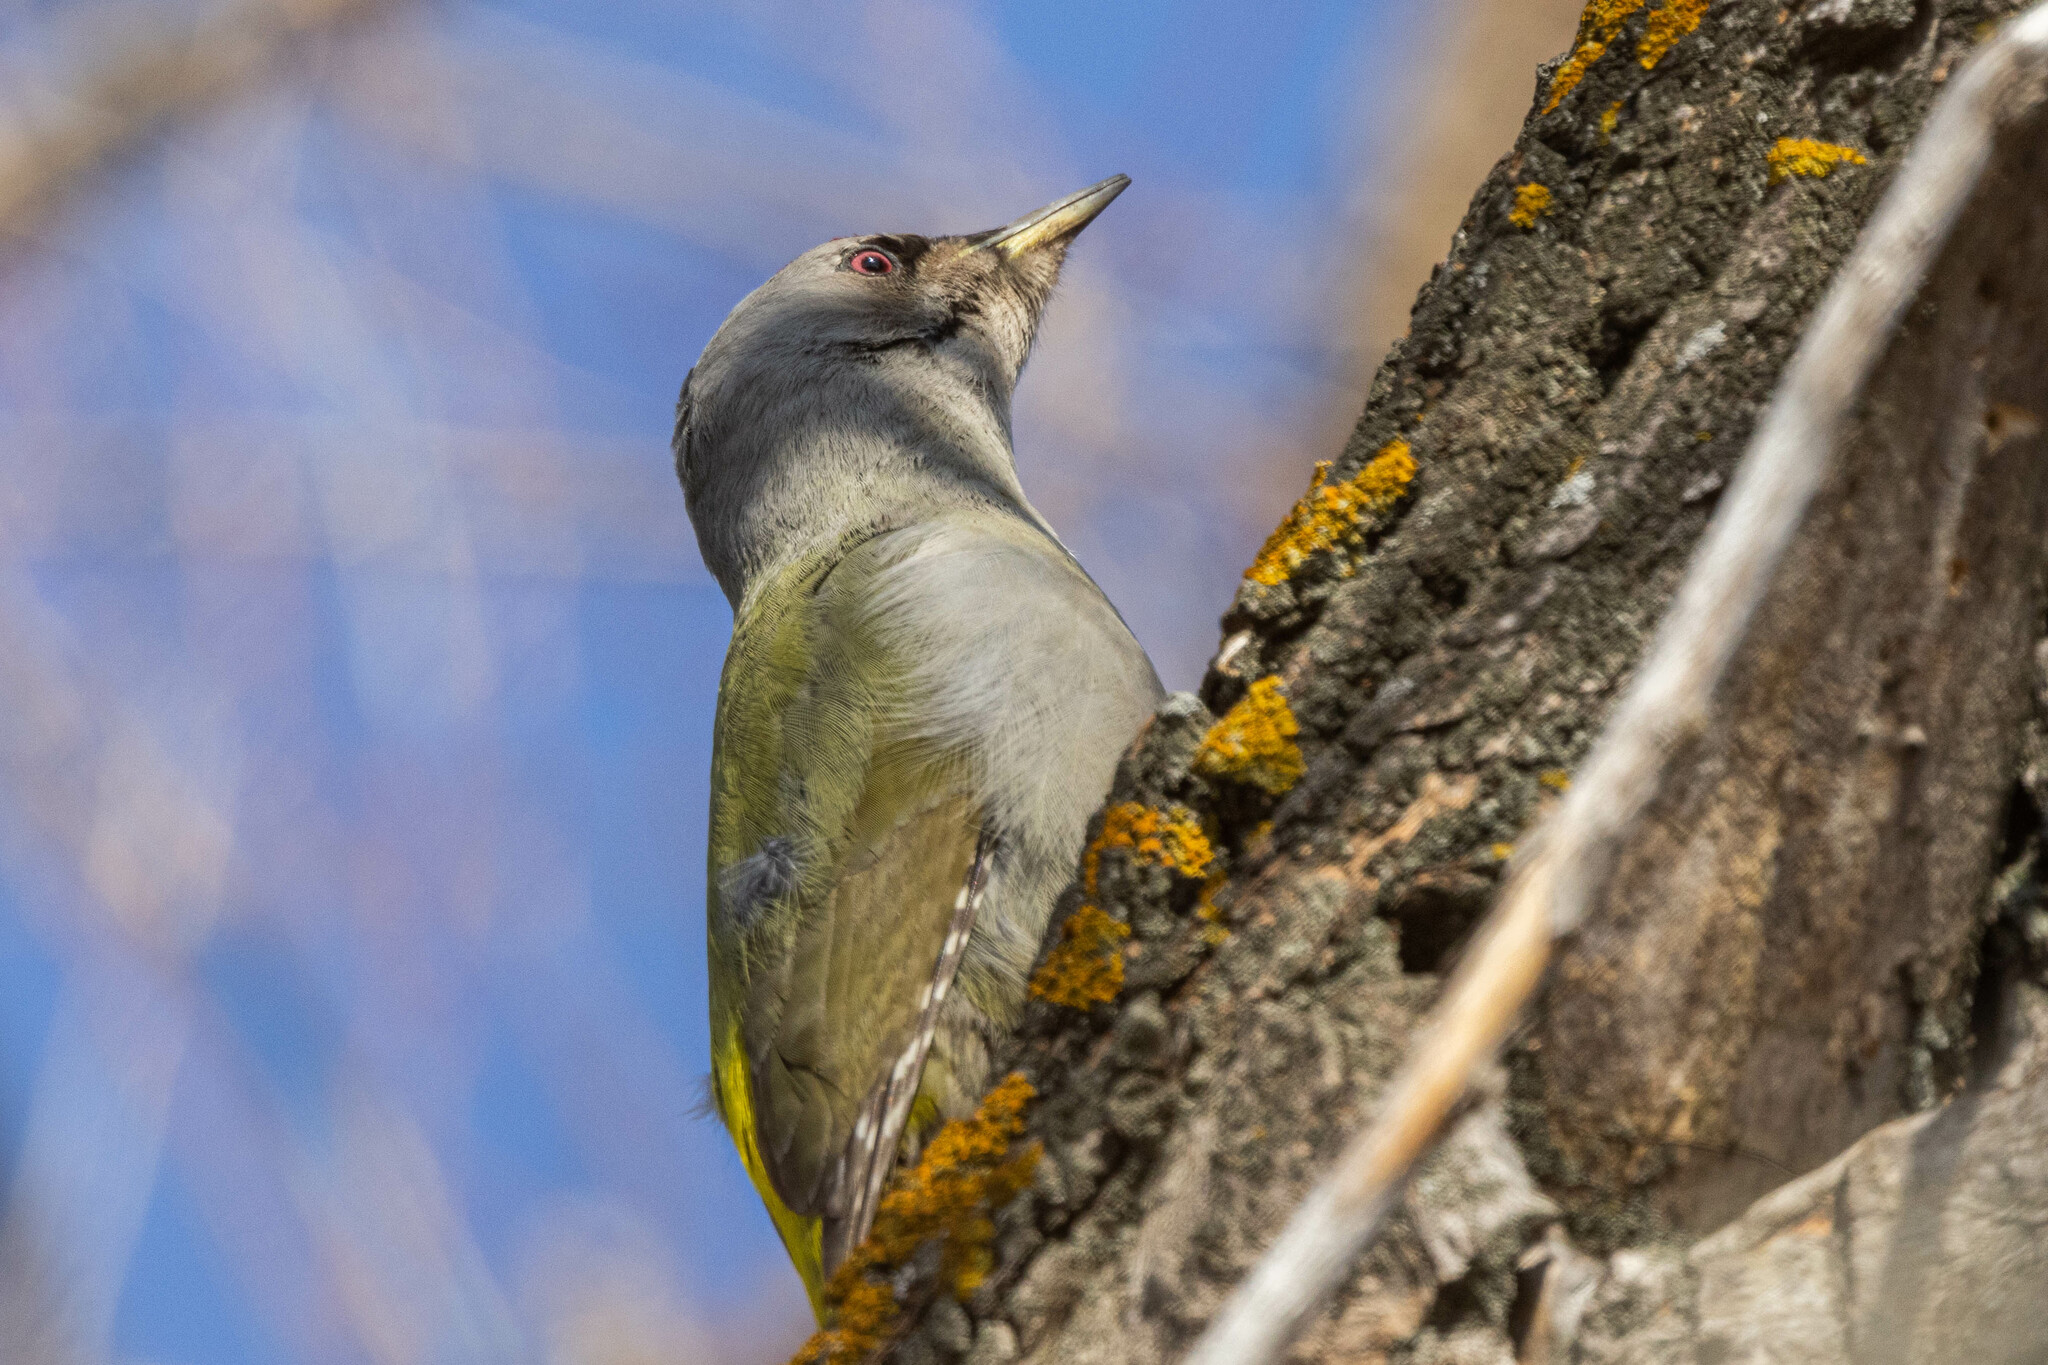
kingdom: Animalia
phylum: Chordata
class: Aves
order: Piciformes
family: Picidae
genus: Picus
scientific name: Picus canus
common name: Grey-headed woodpecker
